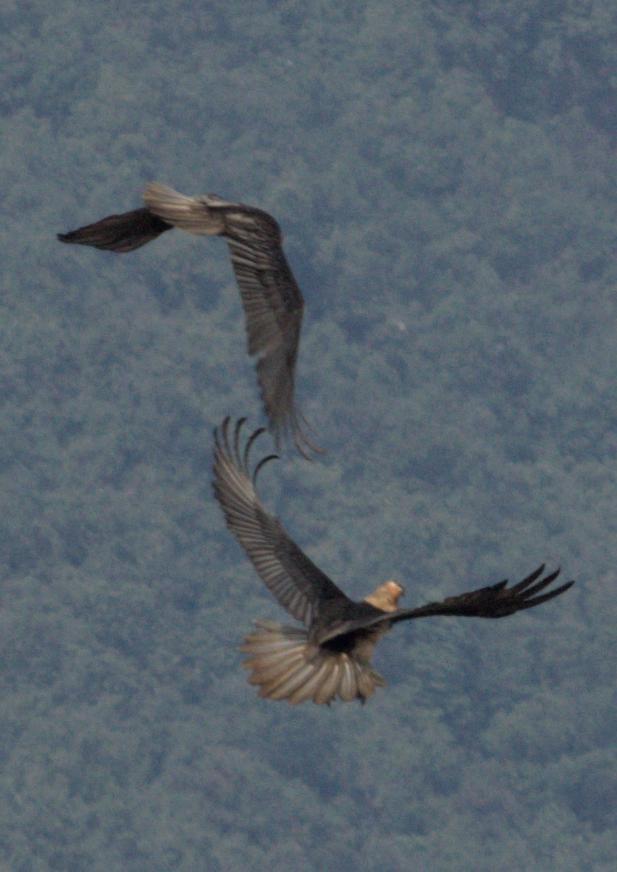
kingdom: Animalia
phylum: Chordata
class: Aves
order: Accipitriformes
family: Accipitridae
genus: Gypaetus
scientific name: Gypaetus barbatus
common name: Bearded vulture
